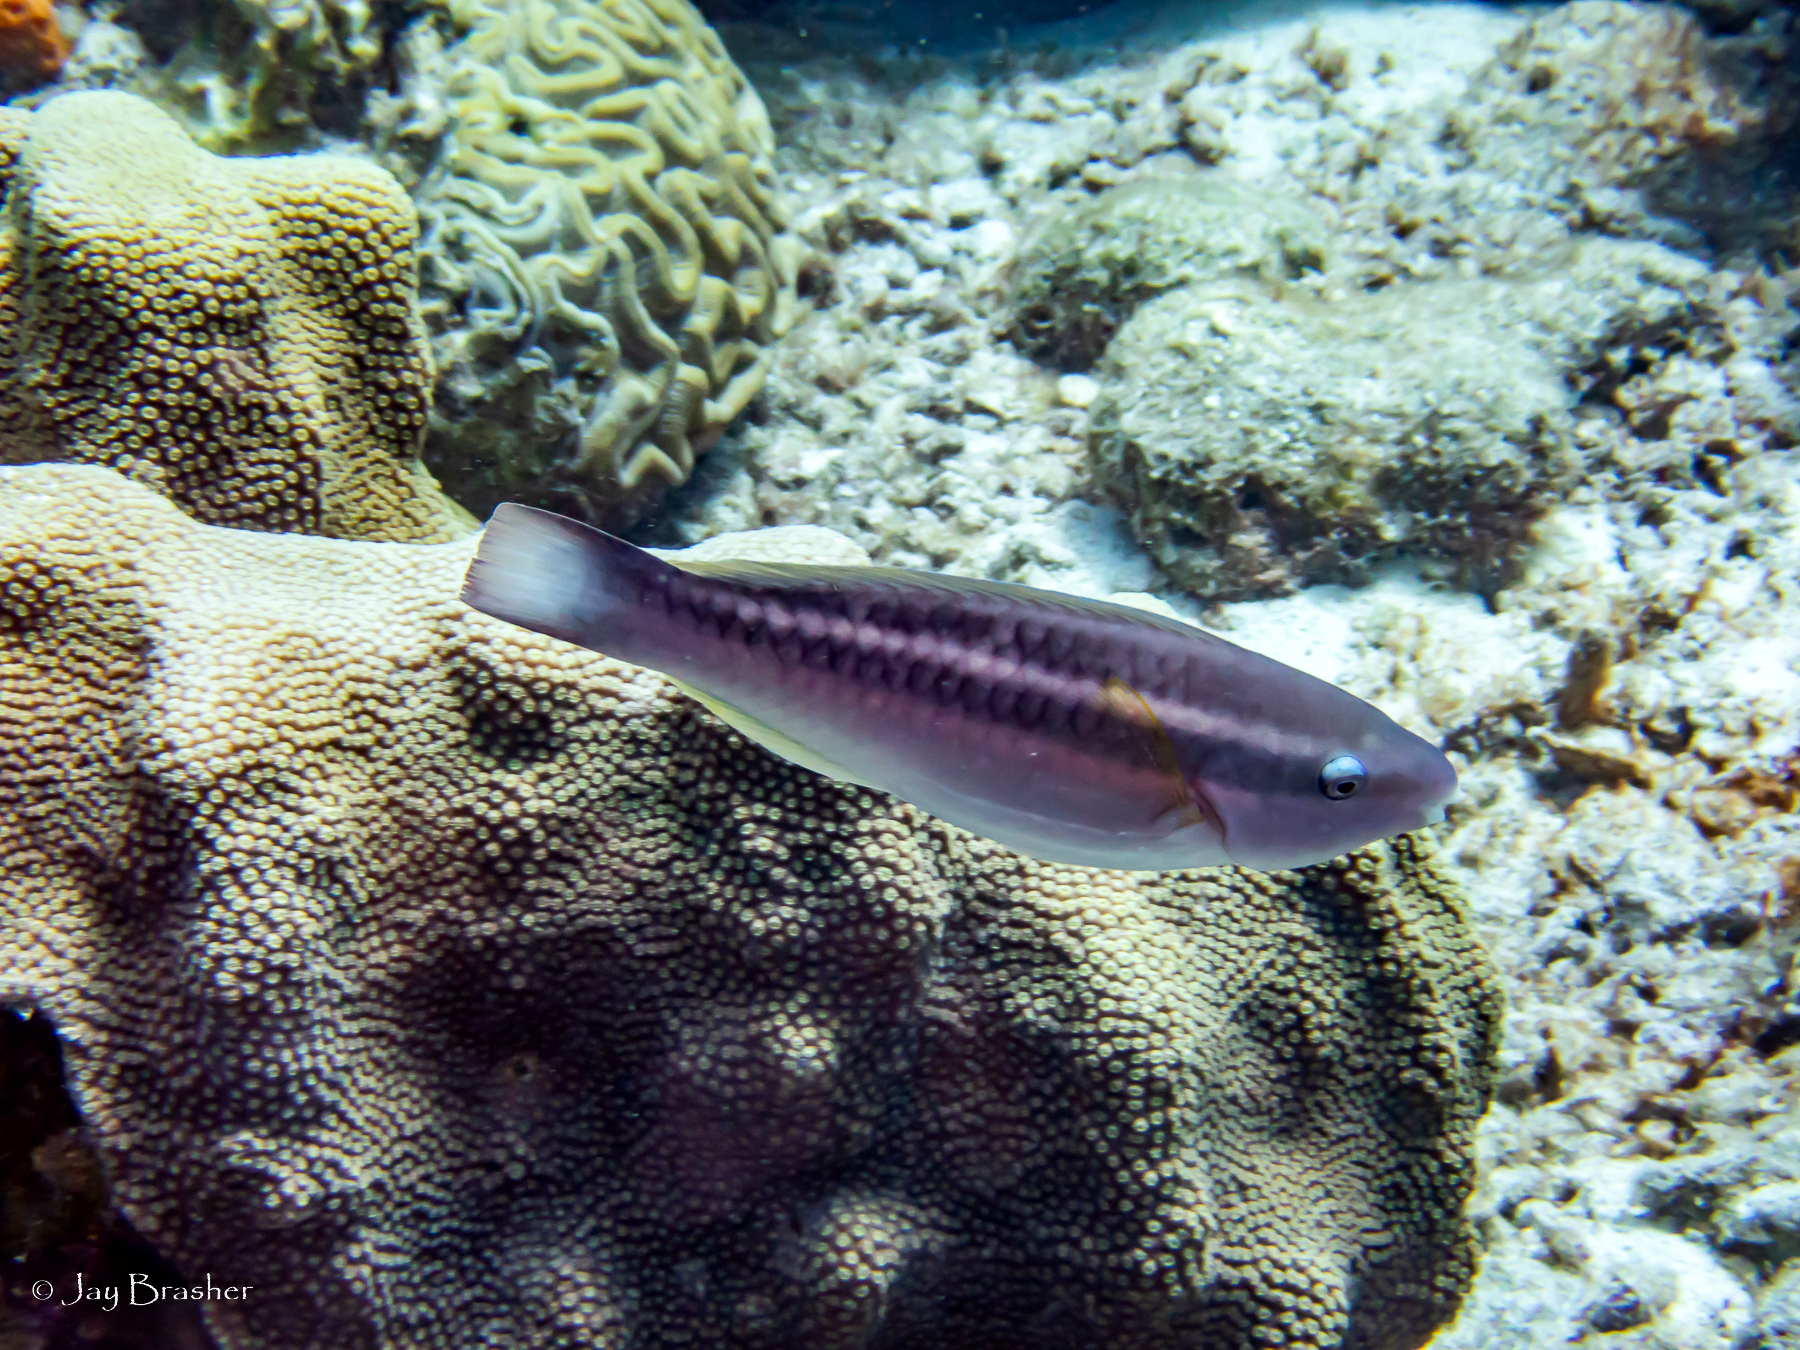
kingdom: Animalia
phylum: Chordata
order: Perciformes
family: Scaridae
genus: Scarus
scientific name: Scarus taeniopterus
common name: Princess parrotfish
